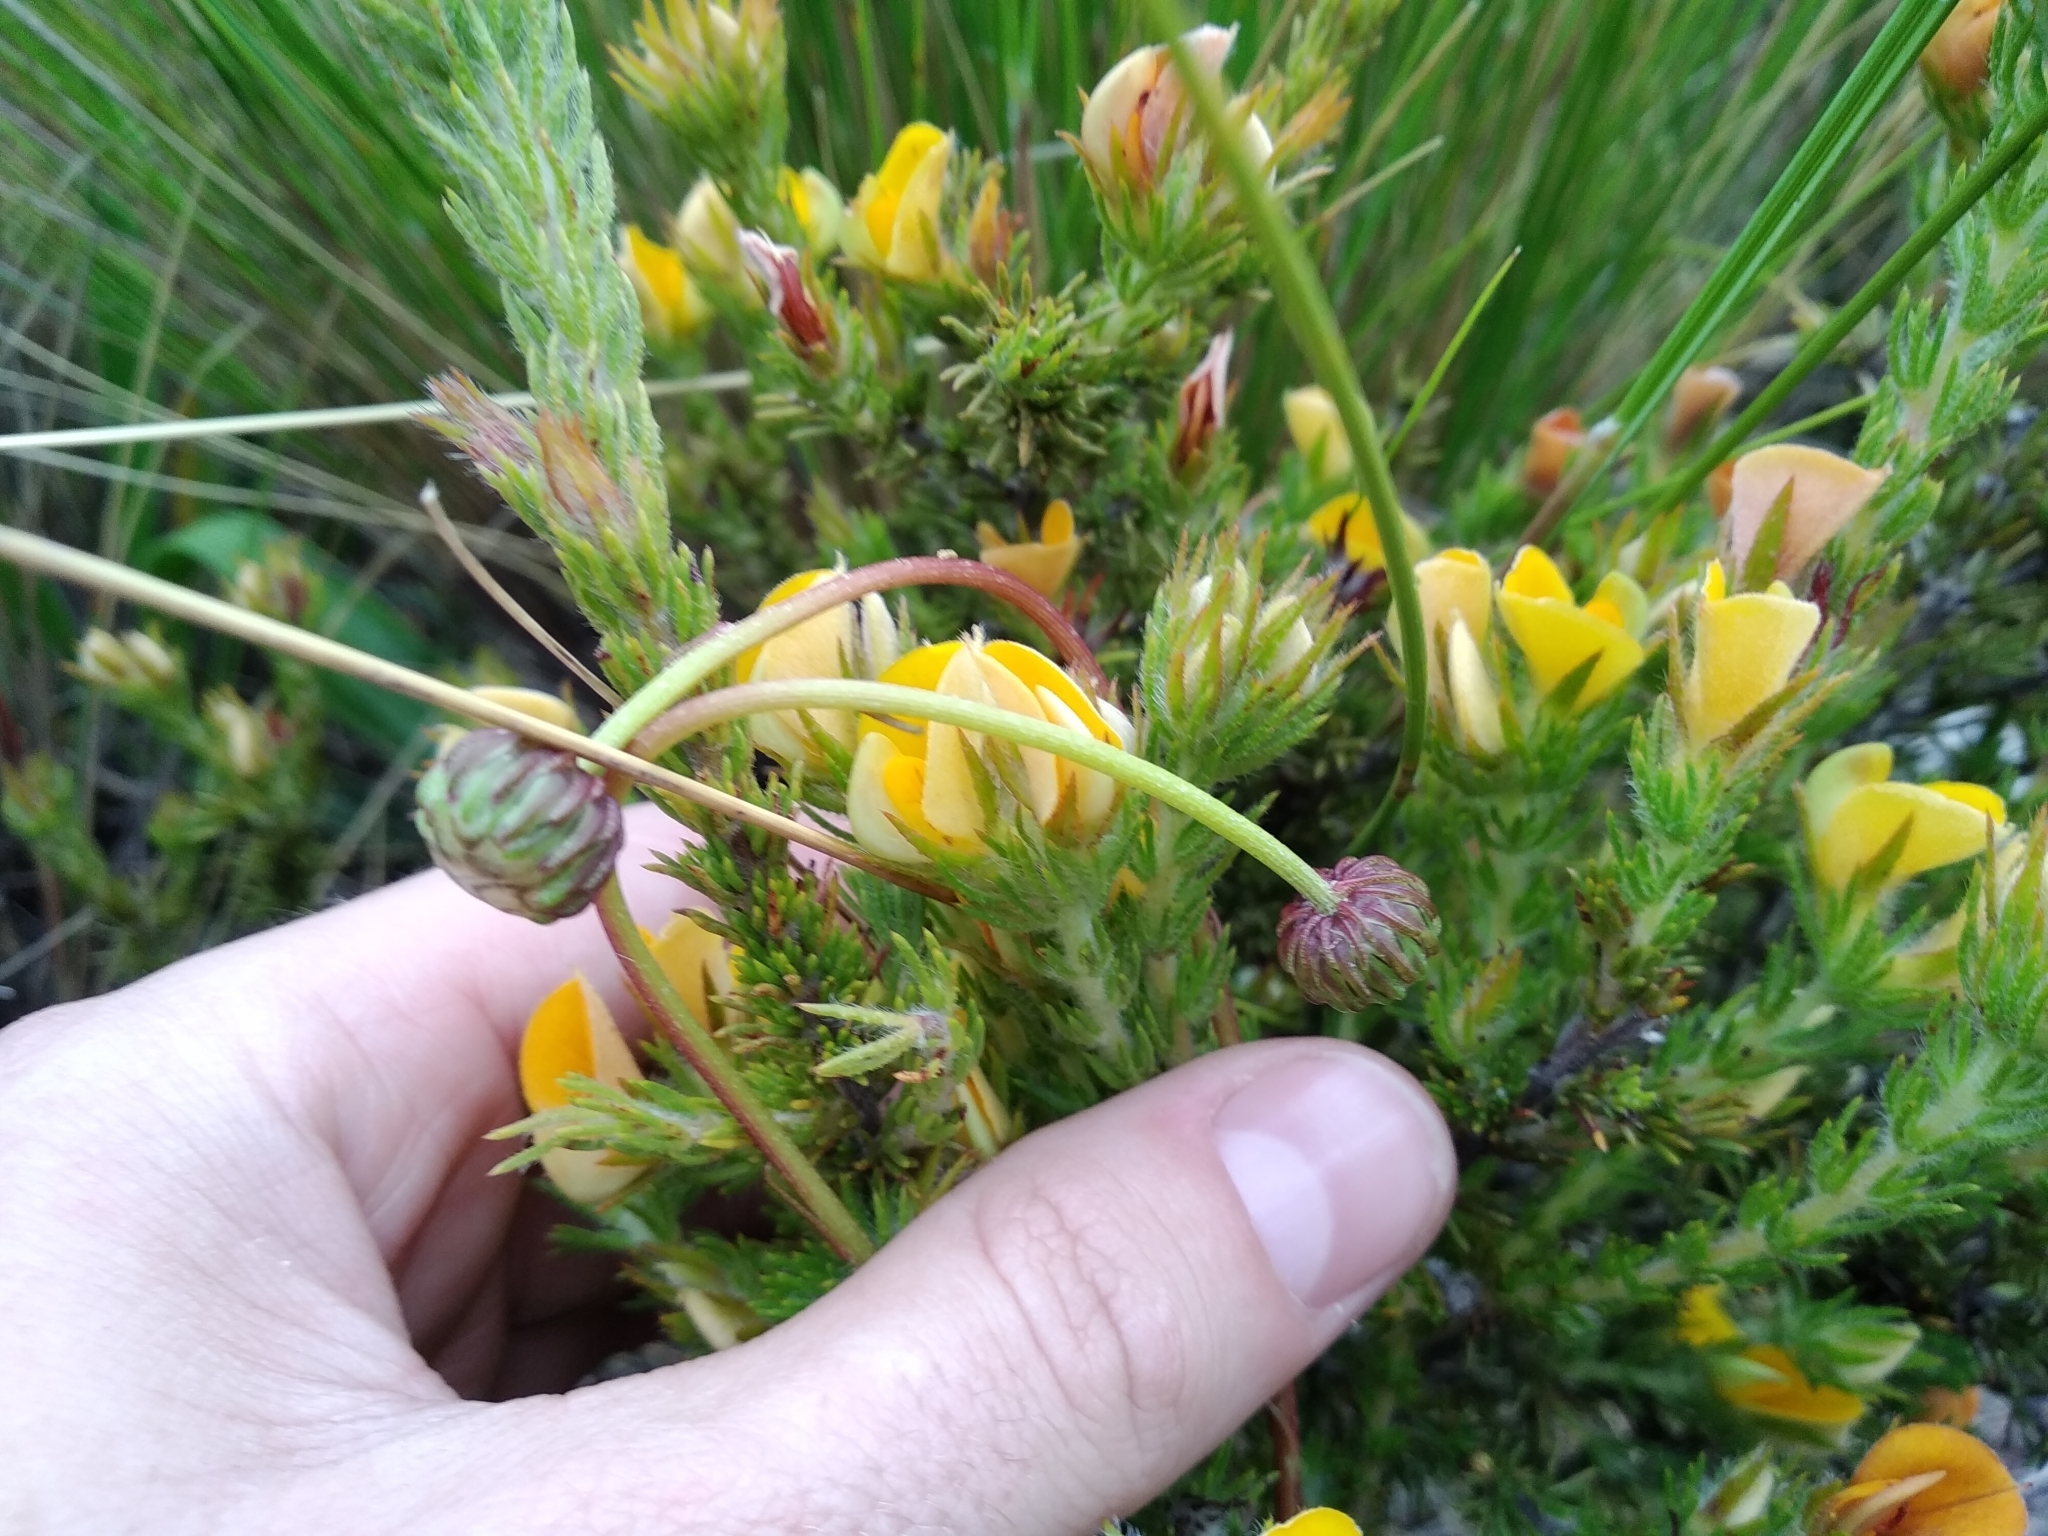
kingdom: Plantae
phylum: Tracheophyta
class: Magnoliopsida
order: Fabales
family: Fabaceae
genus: Aspalathus
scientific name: Aspalathus ciliaris
